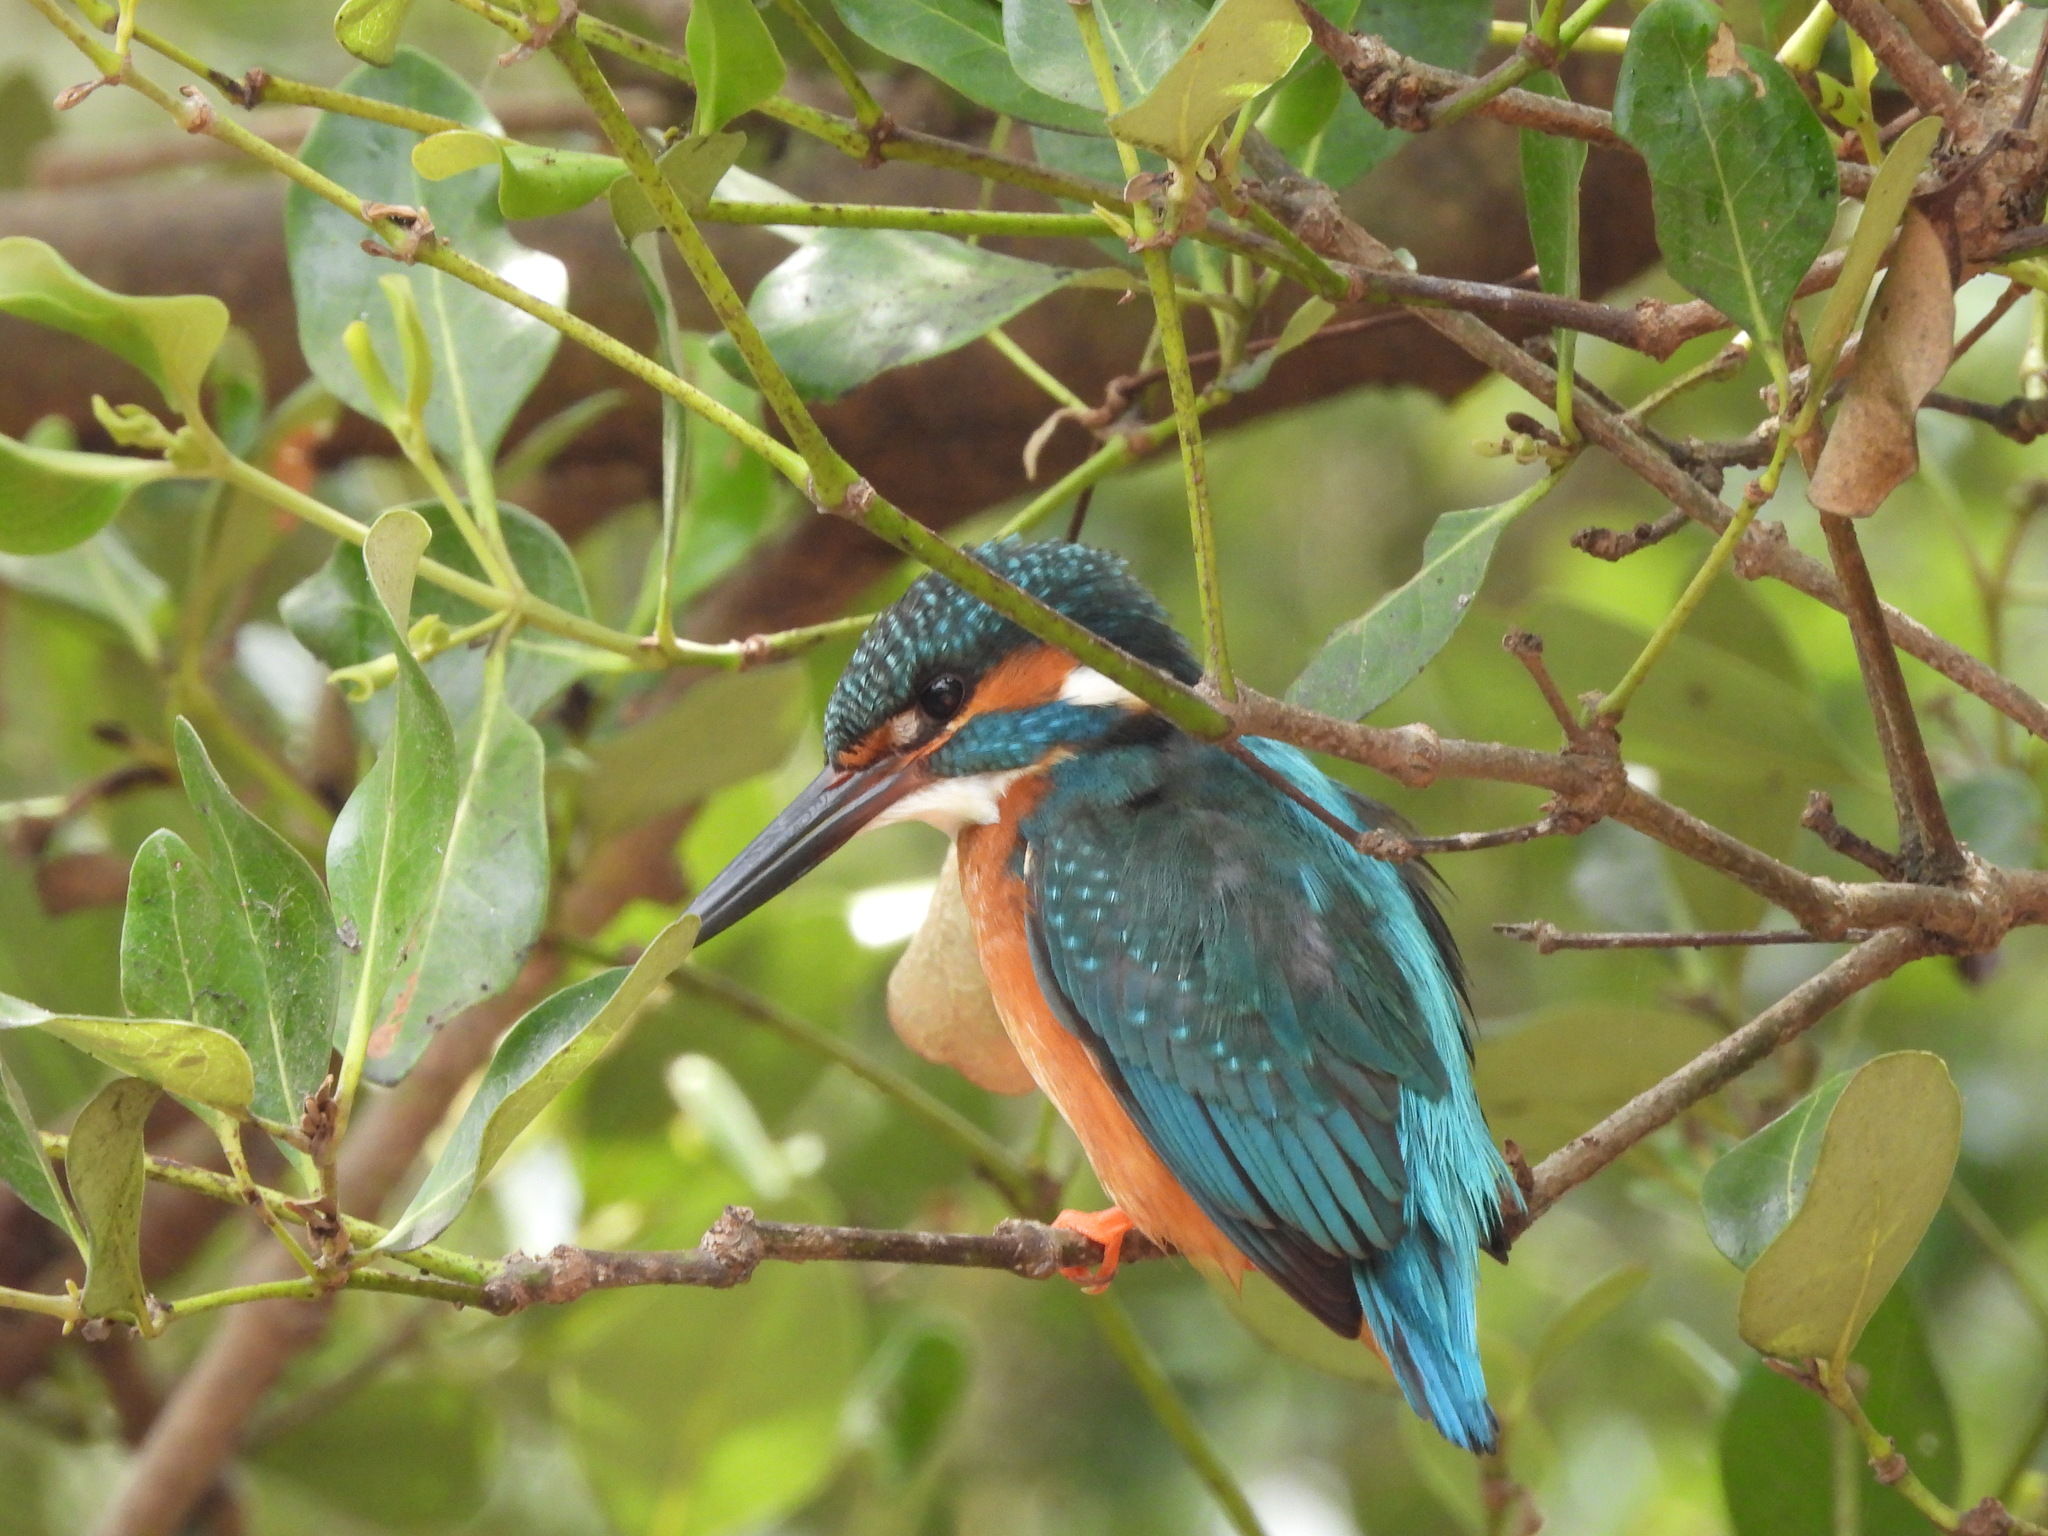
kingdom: Animalia
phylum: Chordata
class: Aves
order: Coraciiformes
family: Alcedinidae
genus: Alcedo
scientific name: Alcedo atthis
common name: Common kingfisher
